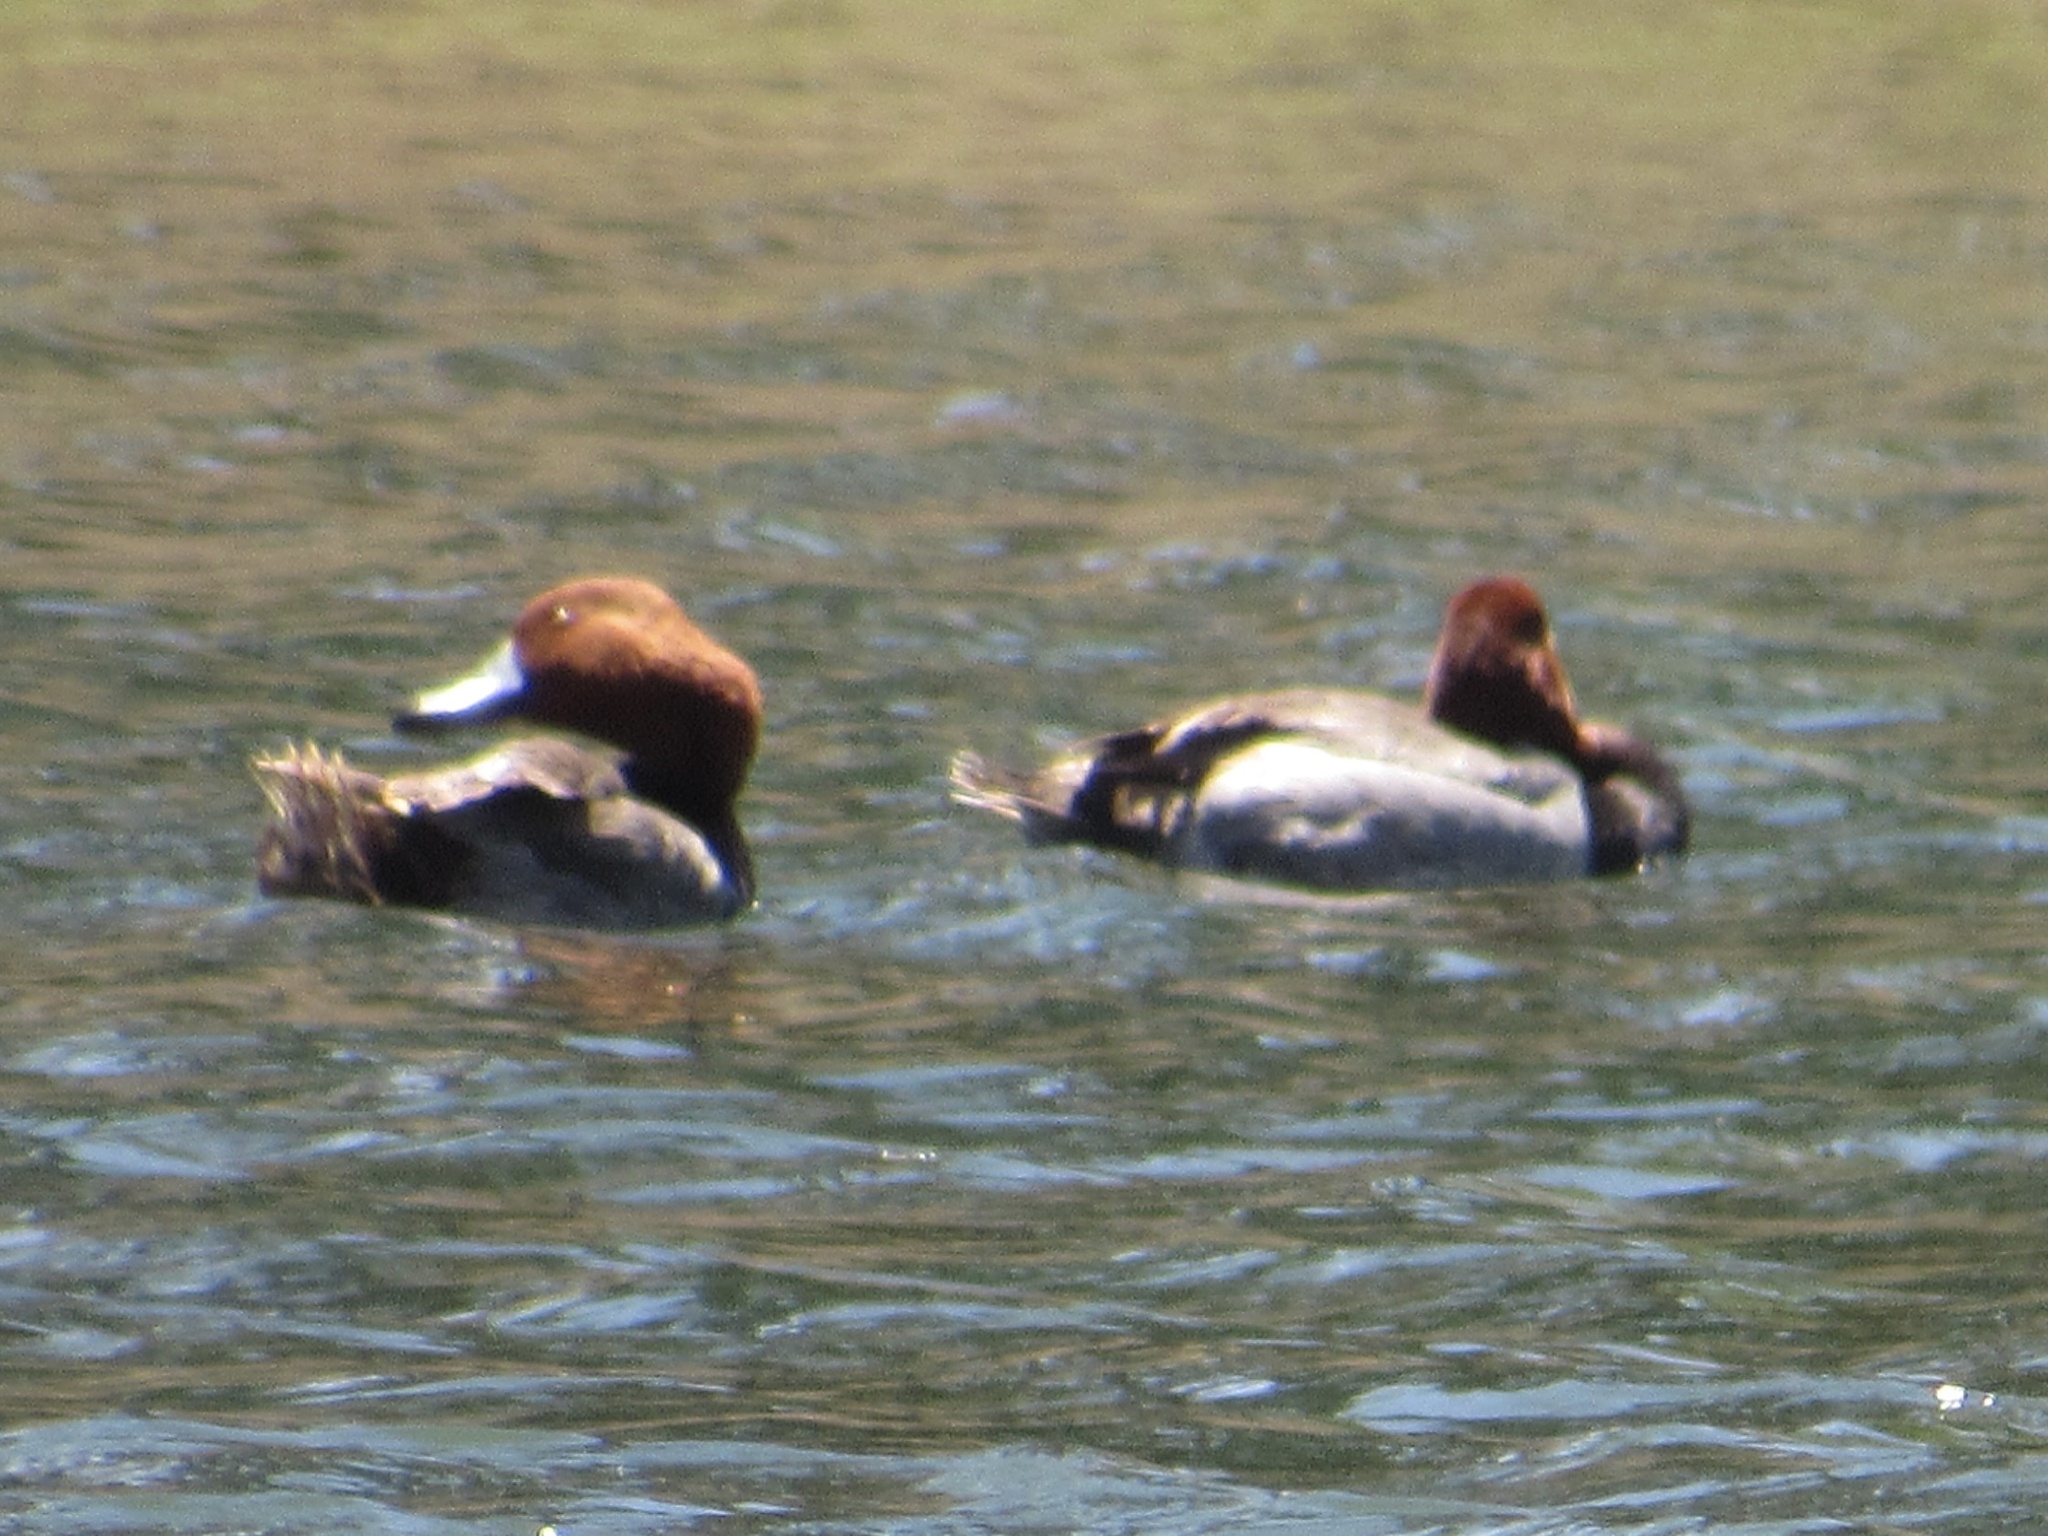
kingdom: Animalia
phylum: Chordata
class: Aves
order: Anseriformes
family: Anatidae
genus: Aythya
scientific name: Aythya americana
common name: Redhead
